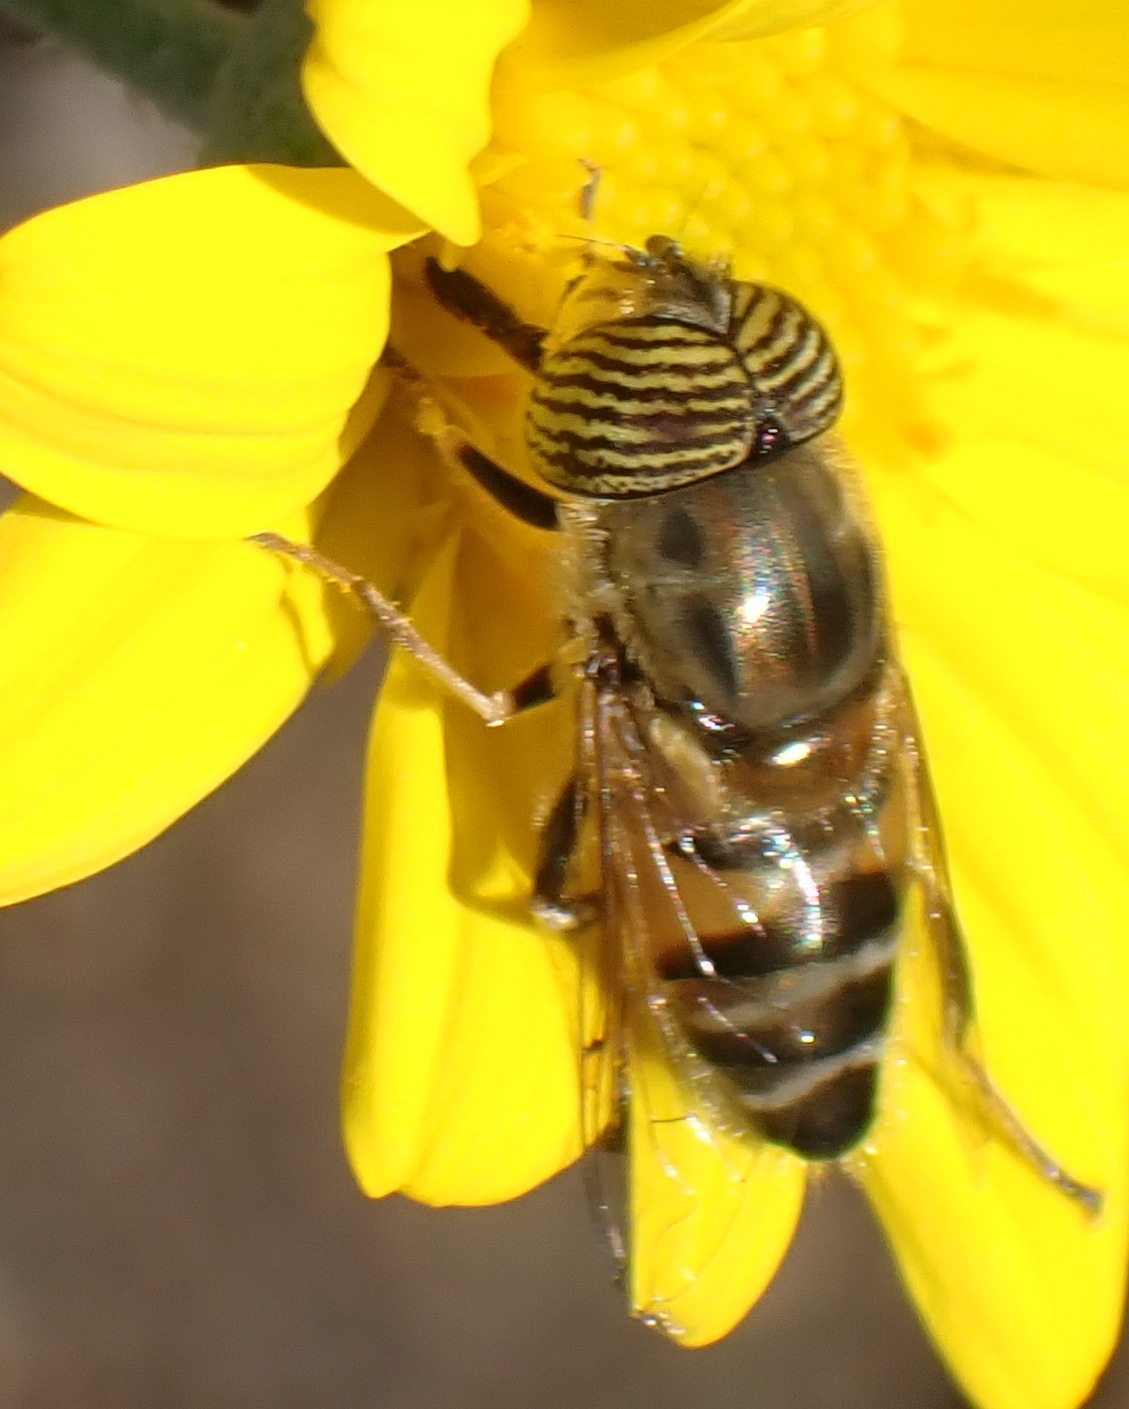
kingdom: Animalia
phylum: Arthropoda
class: Insecta
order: Diptera
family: Syrphidae
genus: Eristalinus
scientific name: Eristalinus taeniops
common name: Syrphid fly
